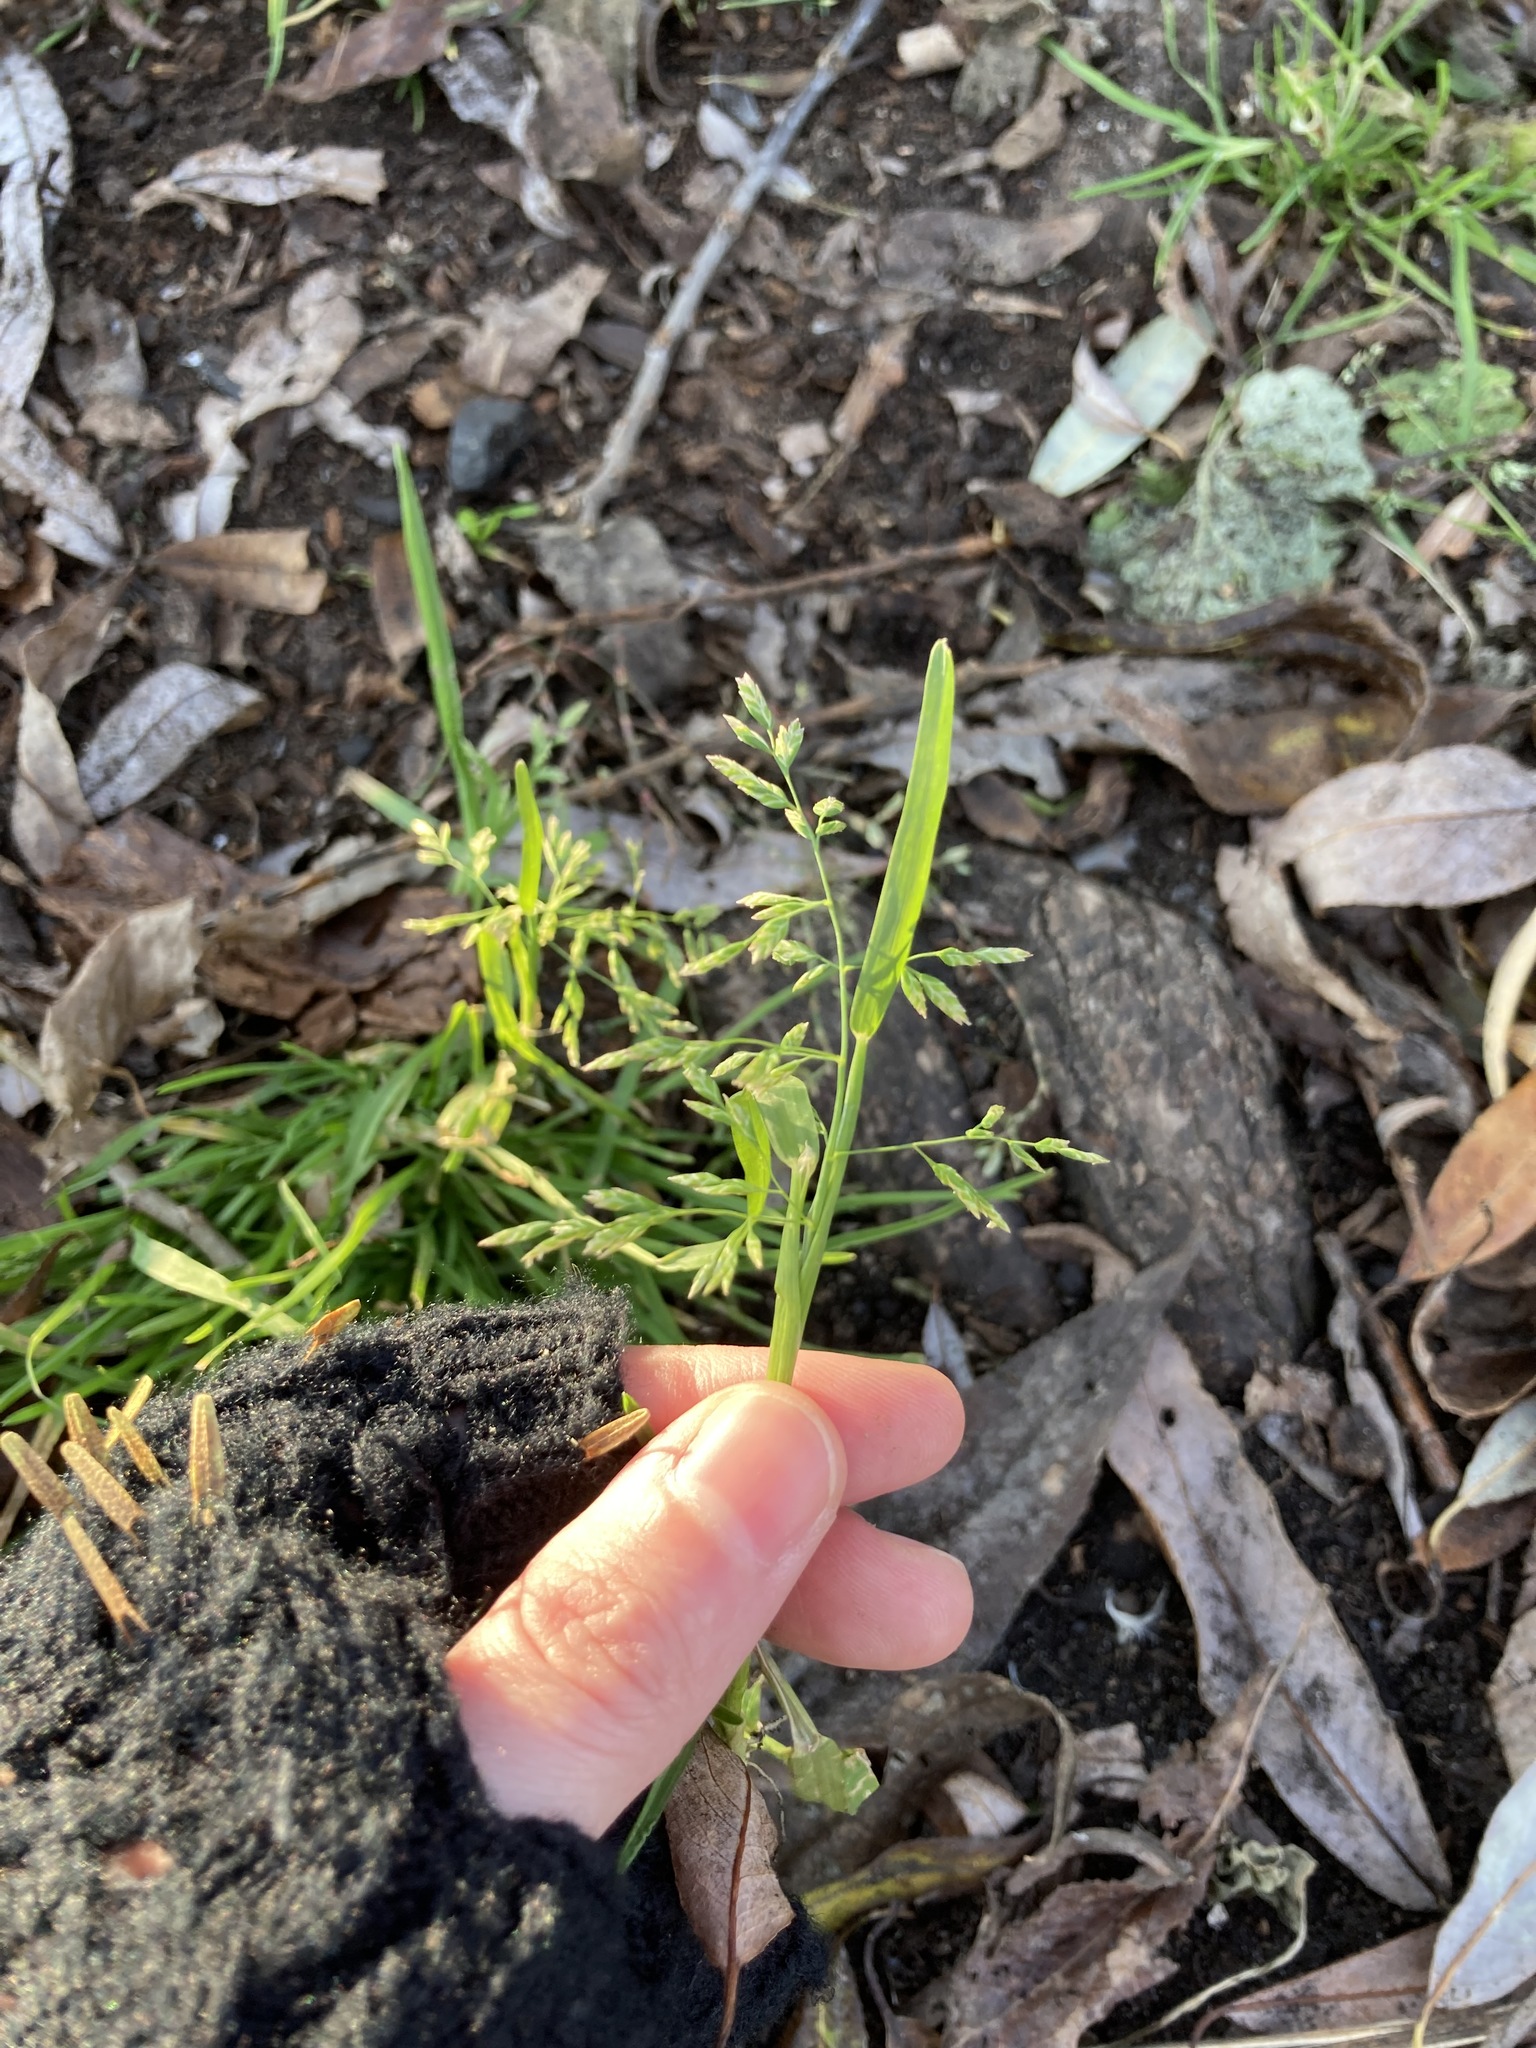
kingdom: Plantae
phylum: Tracheophyta
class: Liliopsida
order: Poales
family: Poaceae
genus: Poa
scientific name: Poa annua
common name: Annual bluegrass
